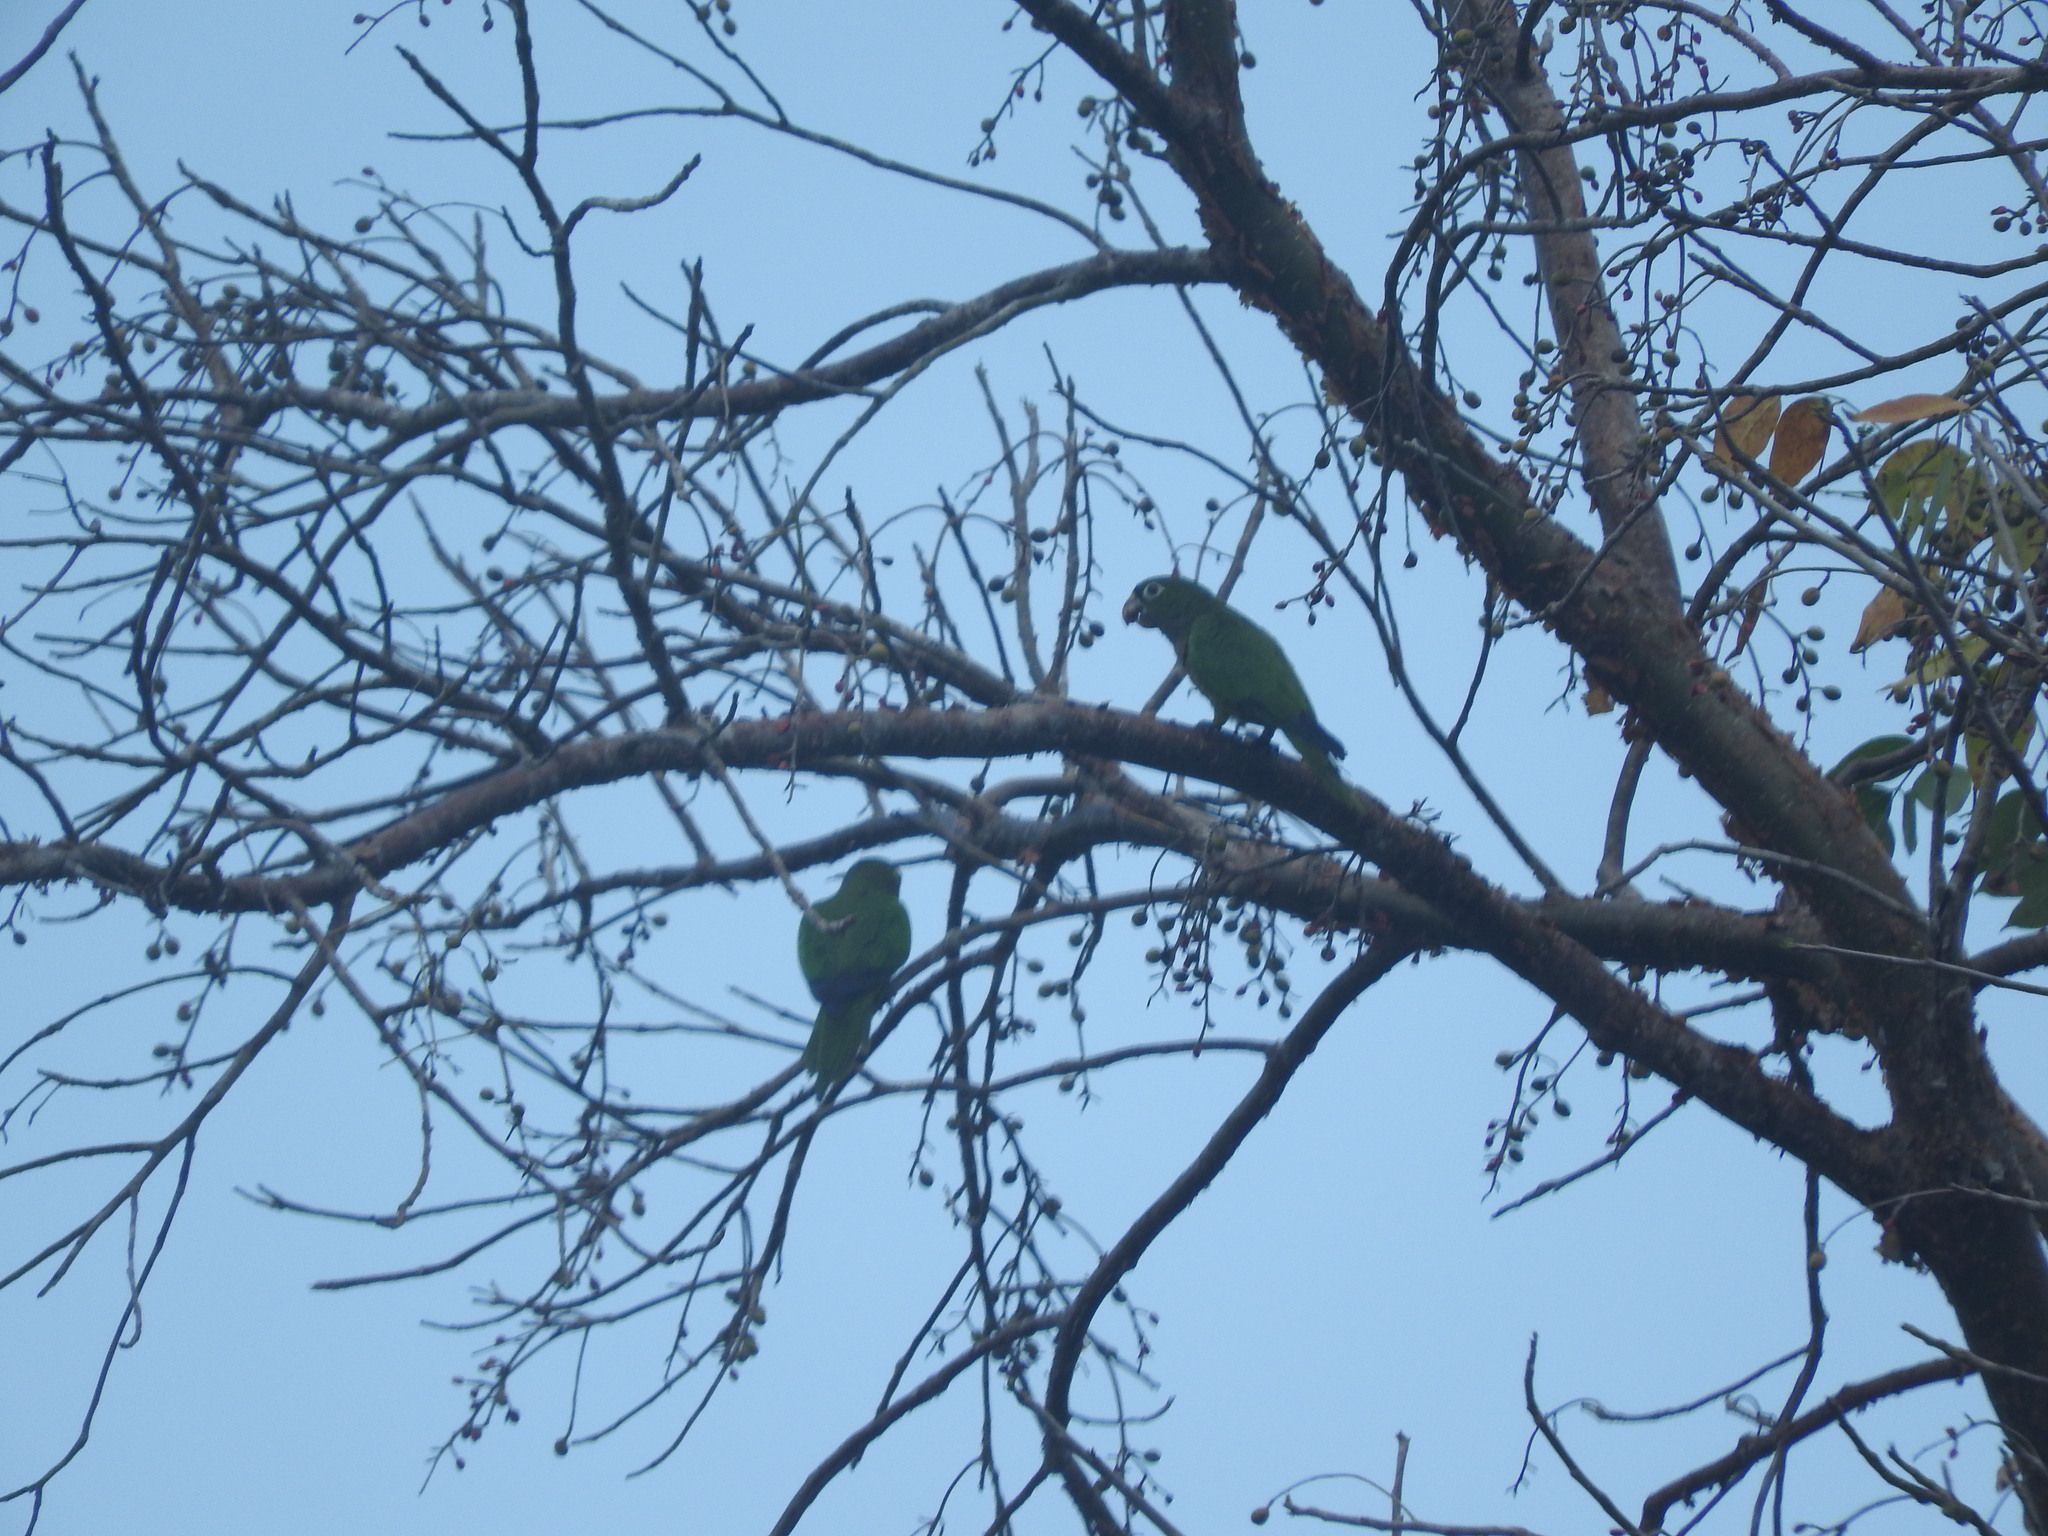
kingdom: Animalia
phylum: Chordata
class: Aves
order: Psittaciformes
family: Psittacidae
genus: Aratinga
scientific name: Aratinga nana
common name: Olive-throated parakeet
